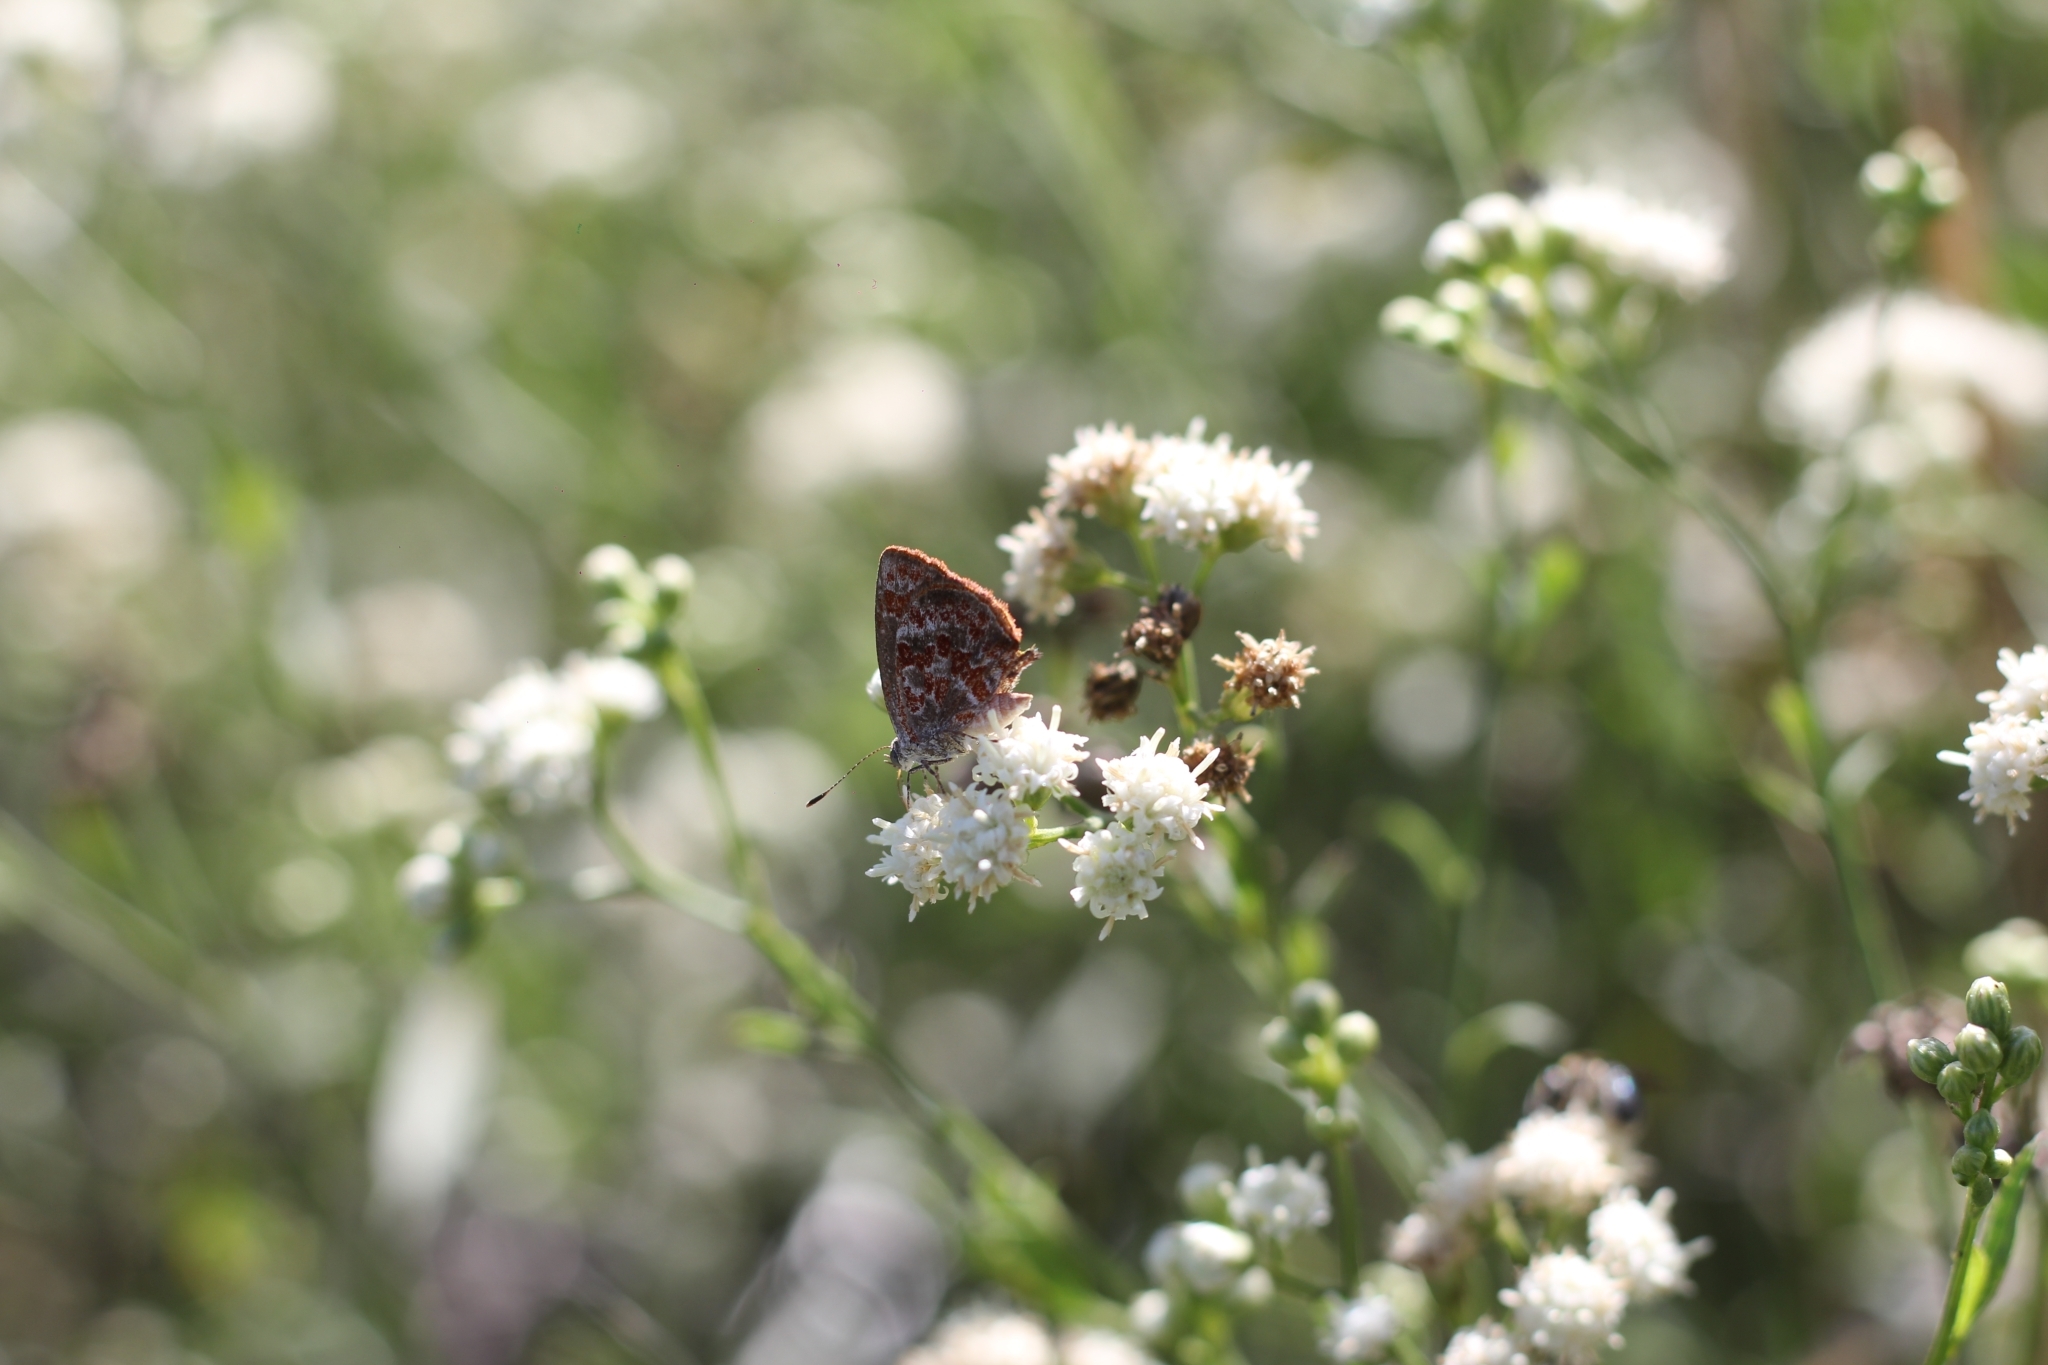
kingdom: Animalia
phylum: Arthropoda
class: Insecta
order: Lepidoptera
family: Lycaenidae
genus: Ministrymon
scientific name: Ministrymon
